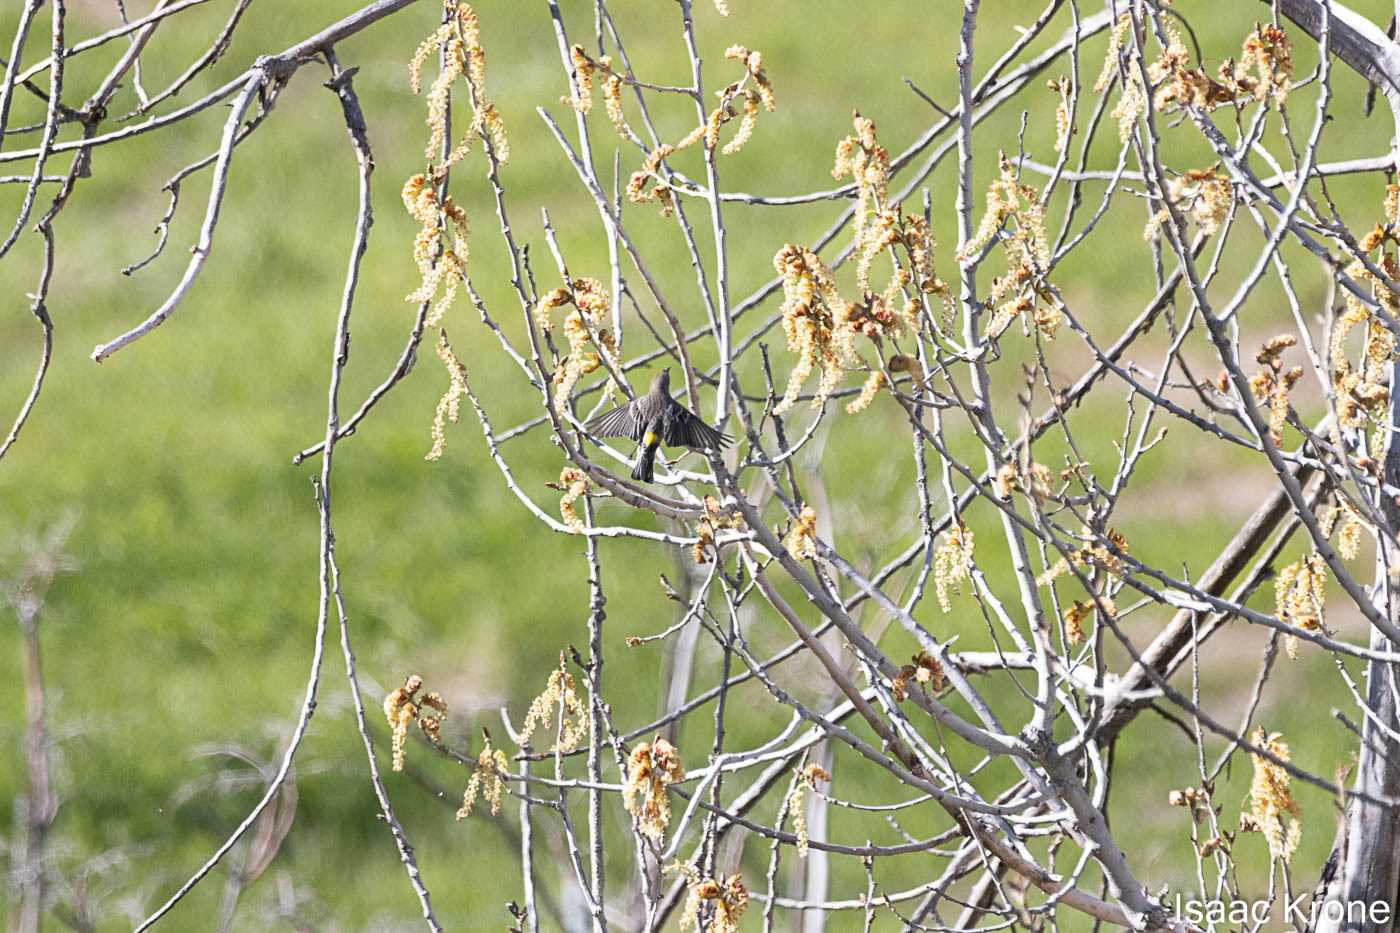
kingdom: Animalia
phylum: Chordata
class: Aves
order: Passeriformes
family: Parulidae
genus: Setophaga
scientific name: Setophaga coronata
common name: Myrtle warbler
